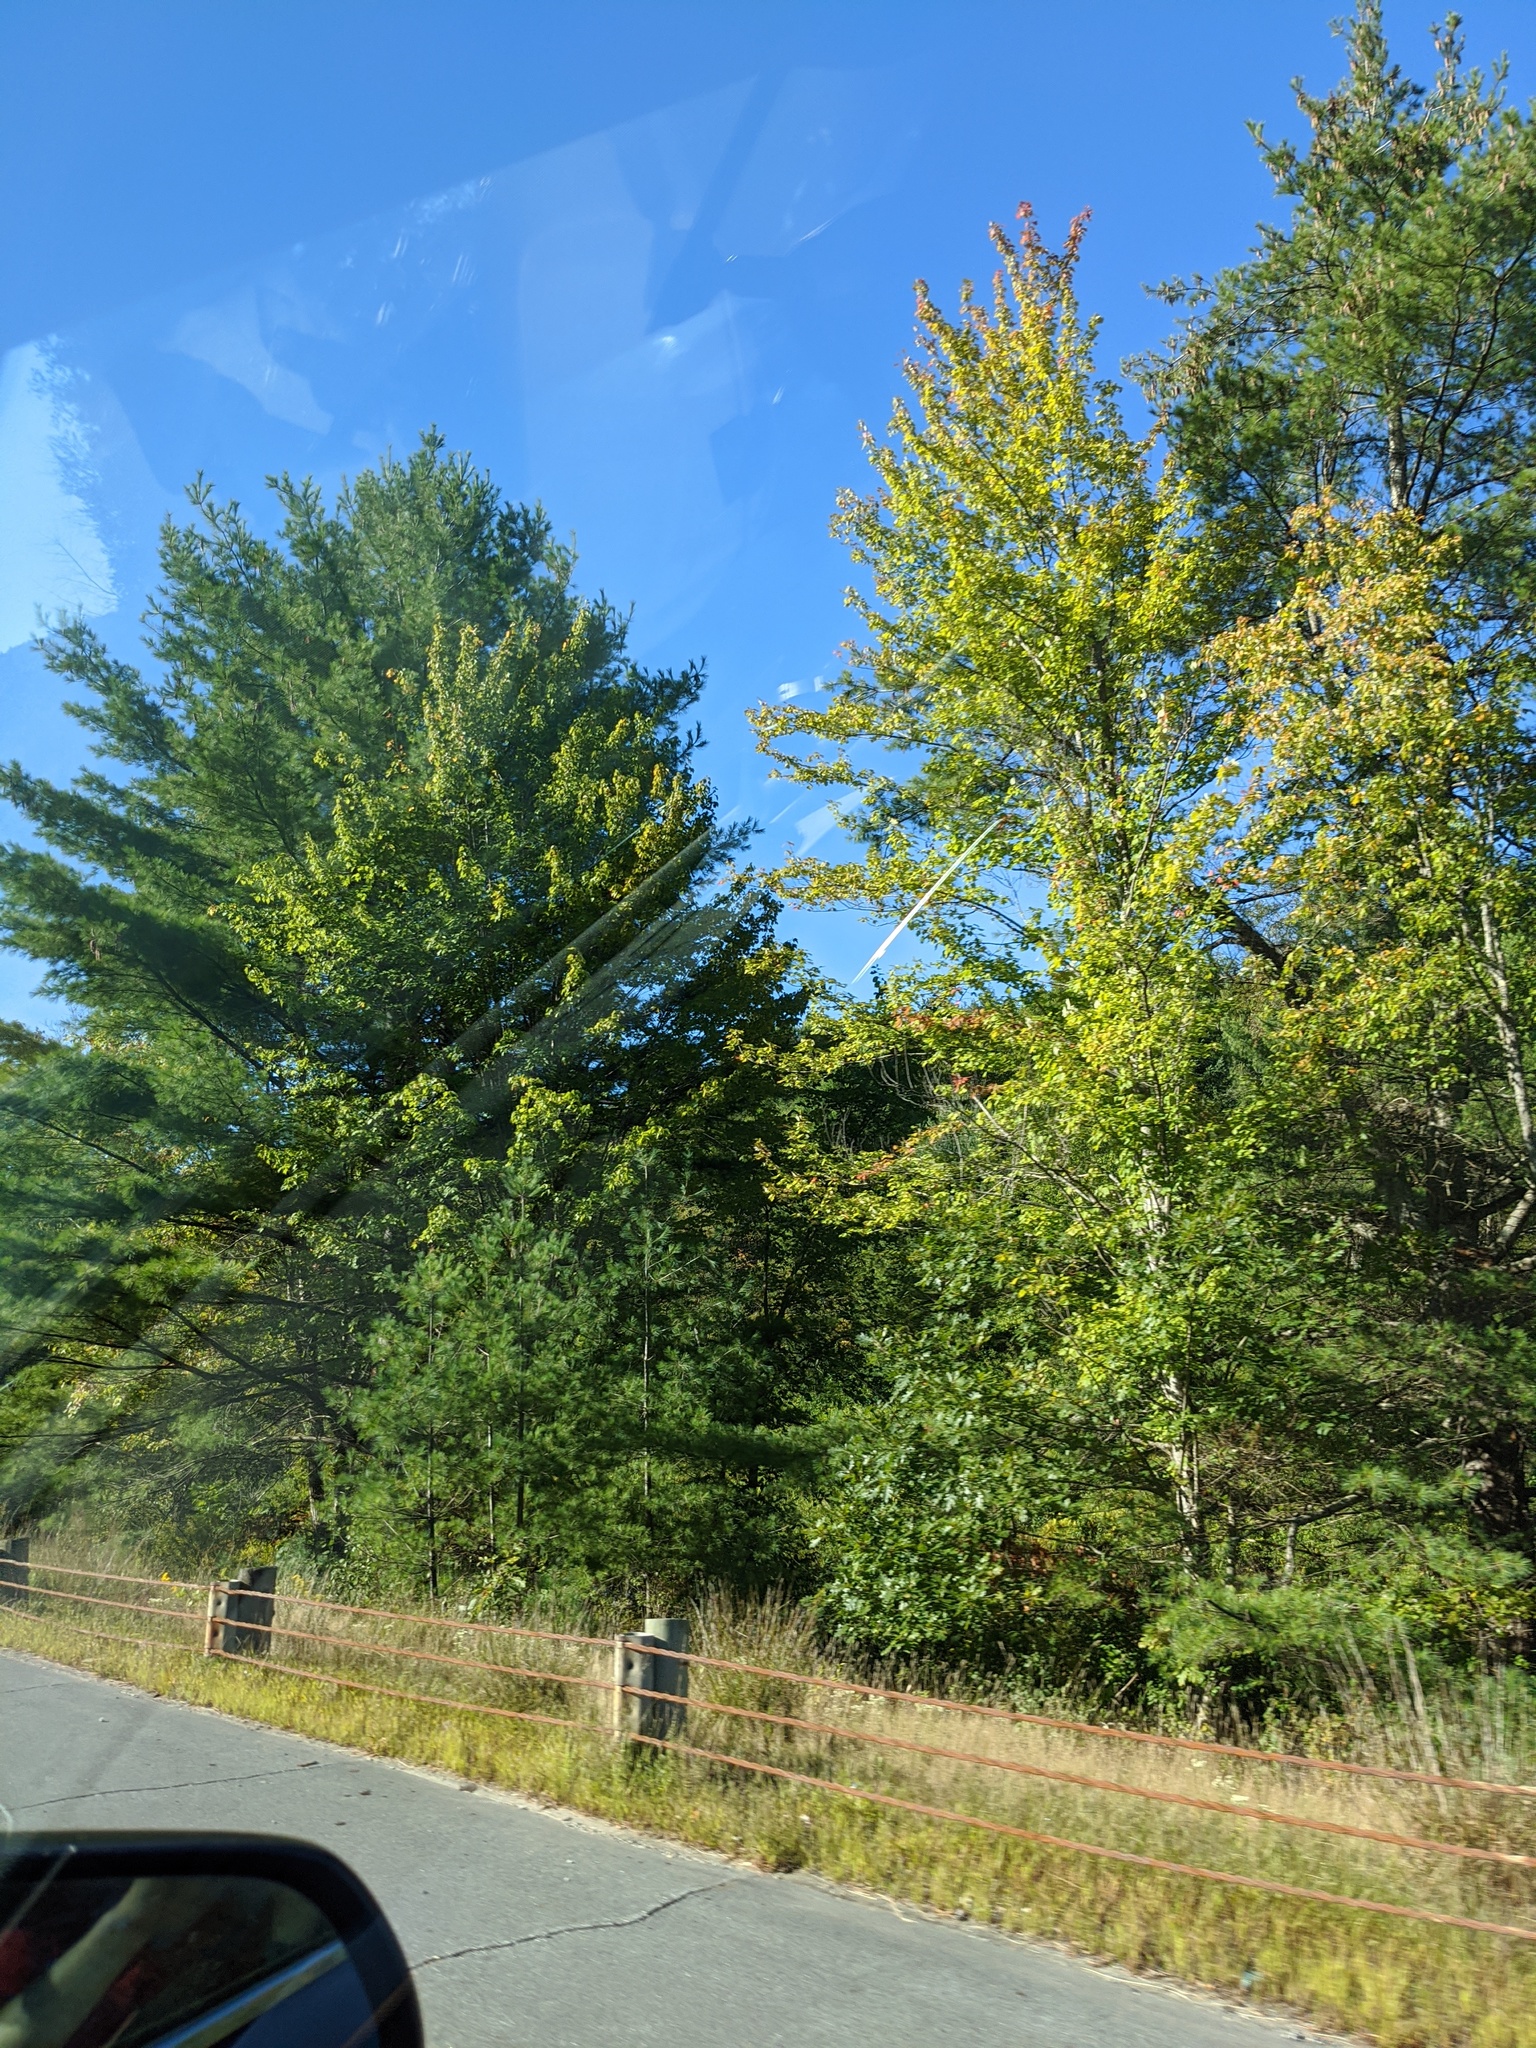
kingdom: Plantae
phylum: Tracheophyta
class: Pinopsida
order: Pinales
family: Pinaceae
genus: Pinus
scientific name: Pinus strobus
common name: Weymouth pine
